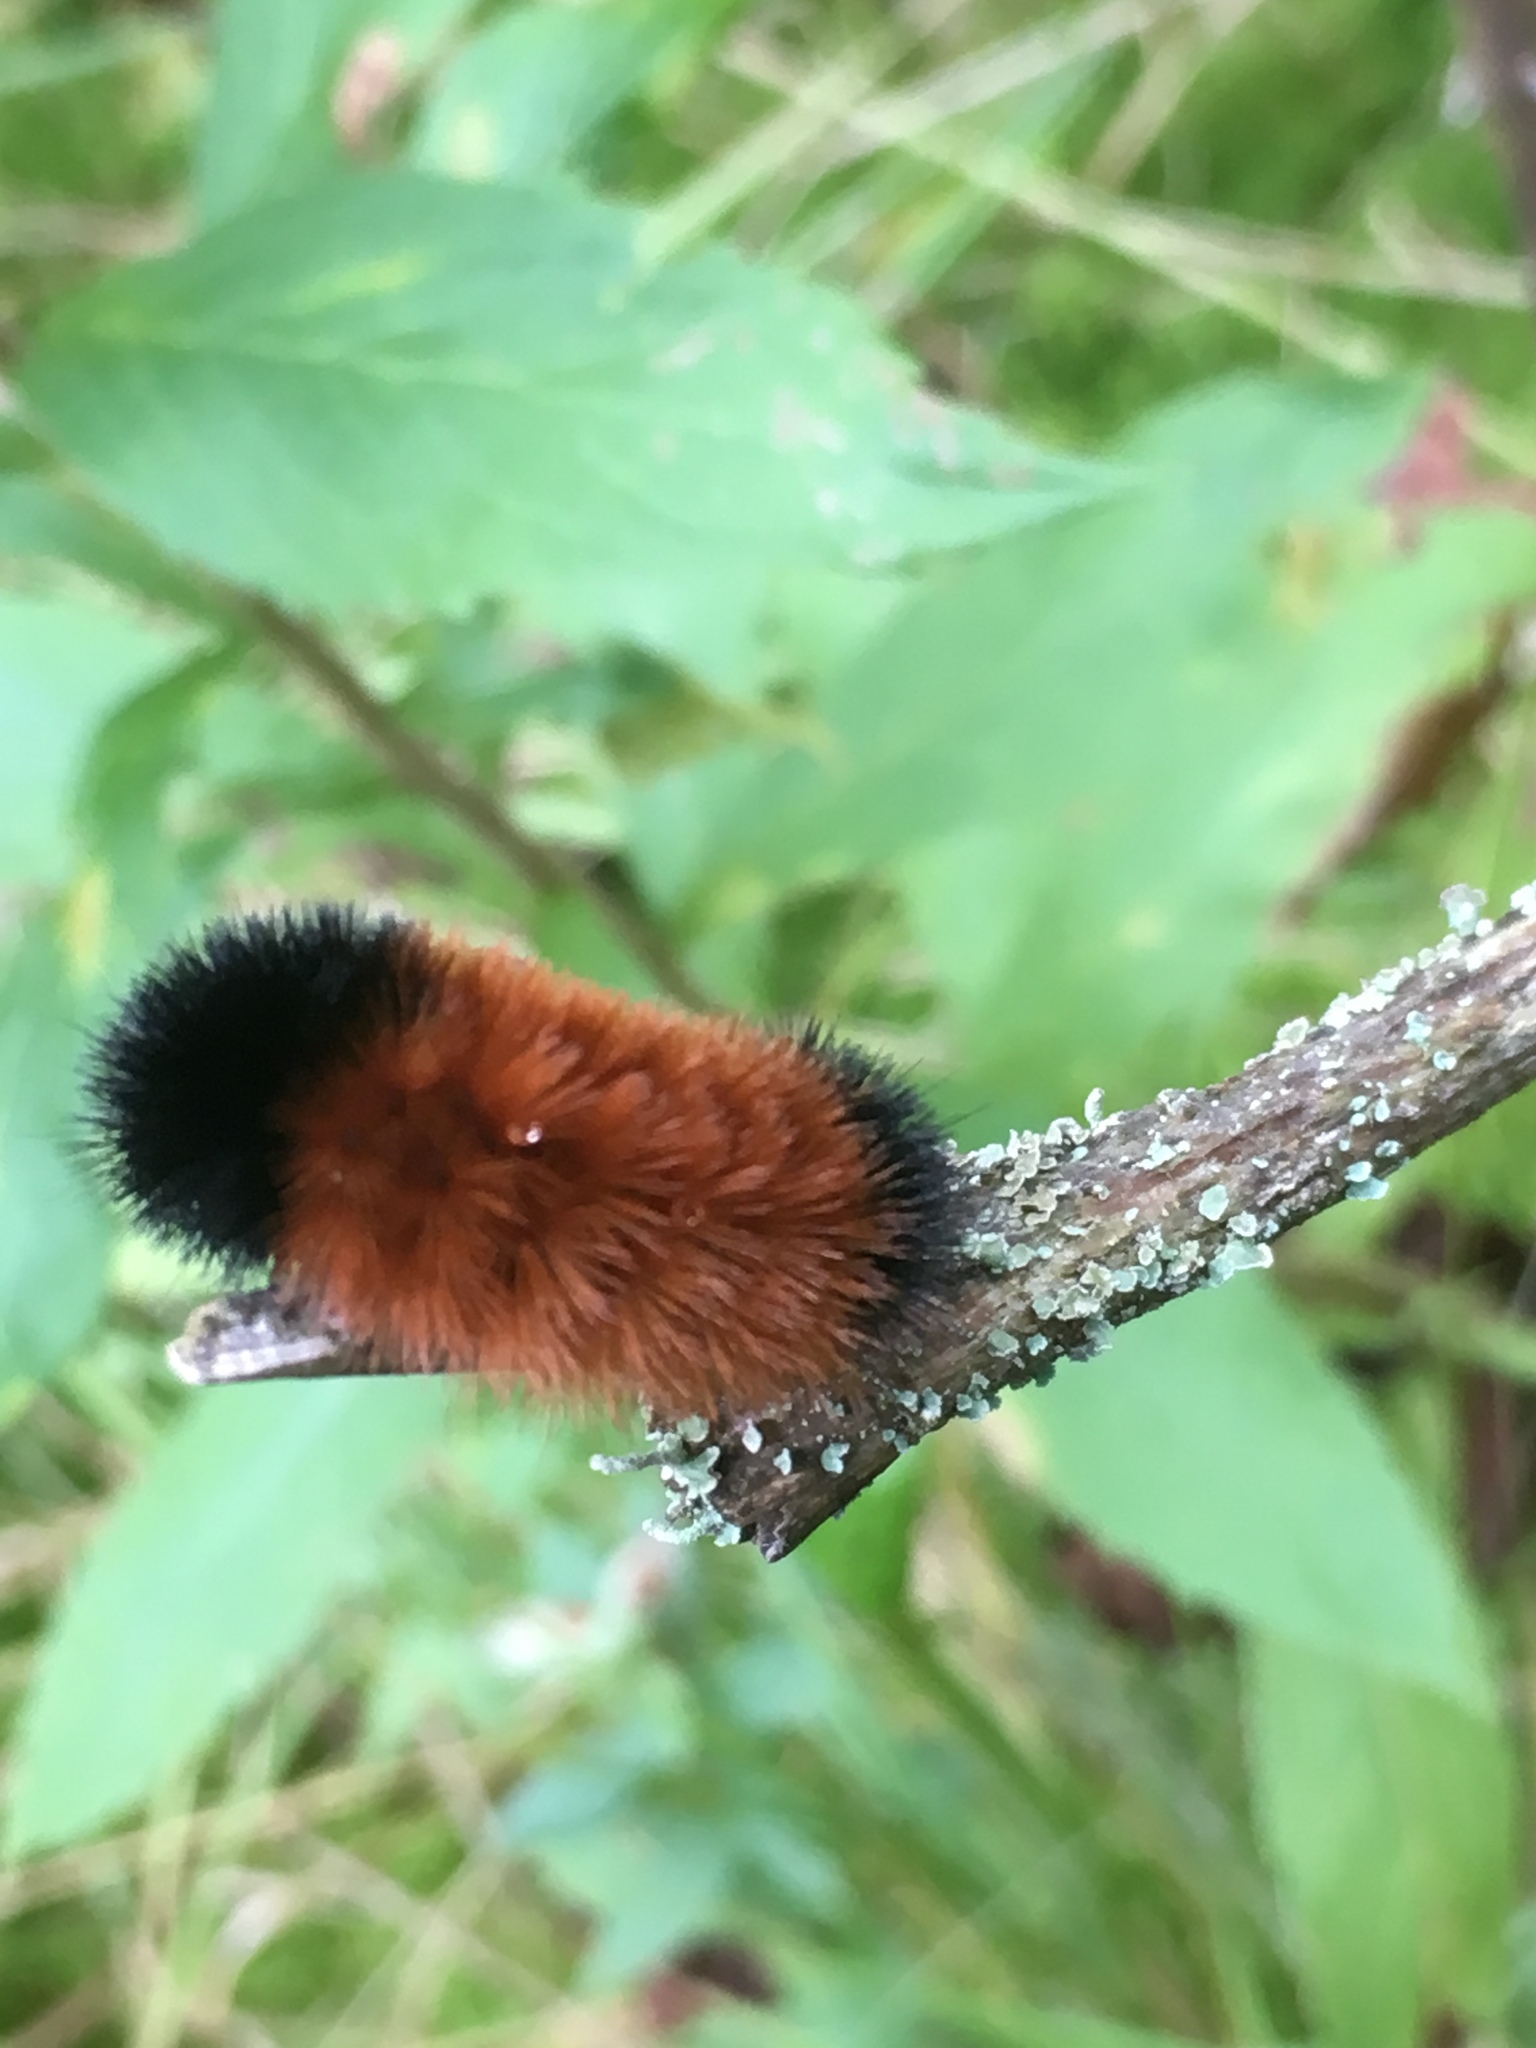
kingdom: Animalia
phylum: Arthropoda
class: Insecta
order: Lepidoptera
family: Erebidae
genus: Pyrrharctia
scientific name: Pyrrharctia isabella
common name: Isabella tiger moth
